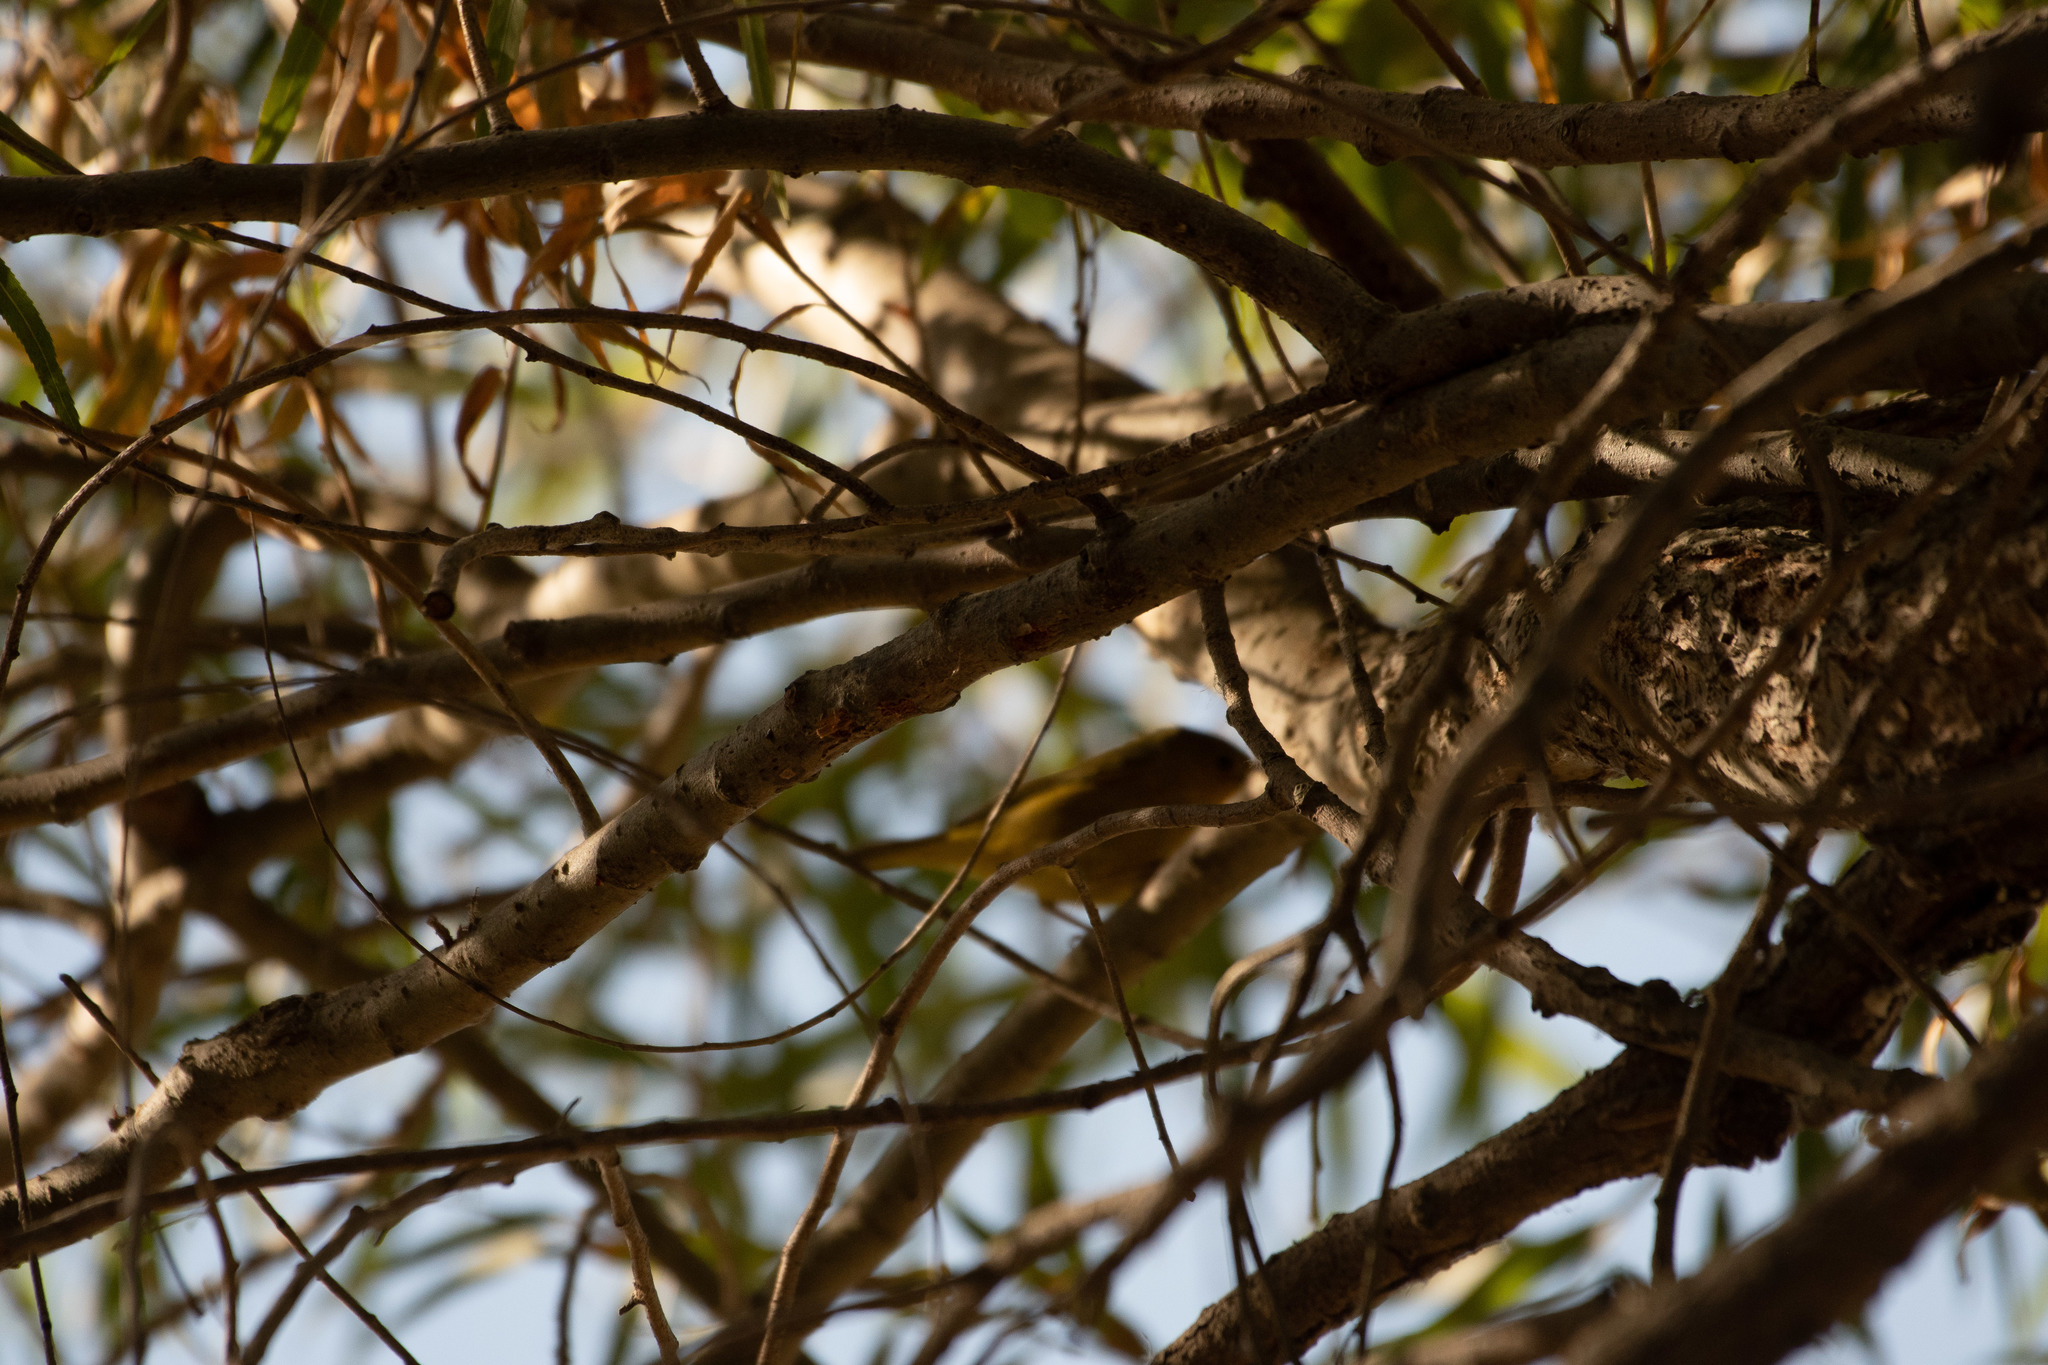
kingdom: Animalia
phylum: Chordata
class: Aves
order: Passeriformes
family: Parulidae
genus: Setophaga
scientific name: Setophaga petechia
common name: Yellow warbler
